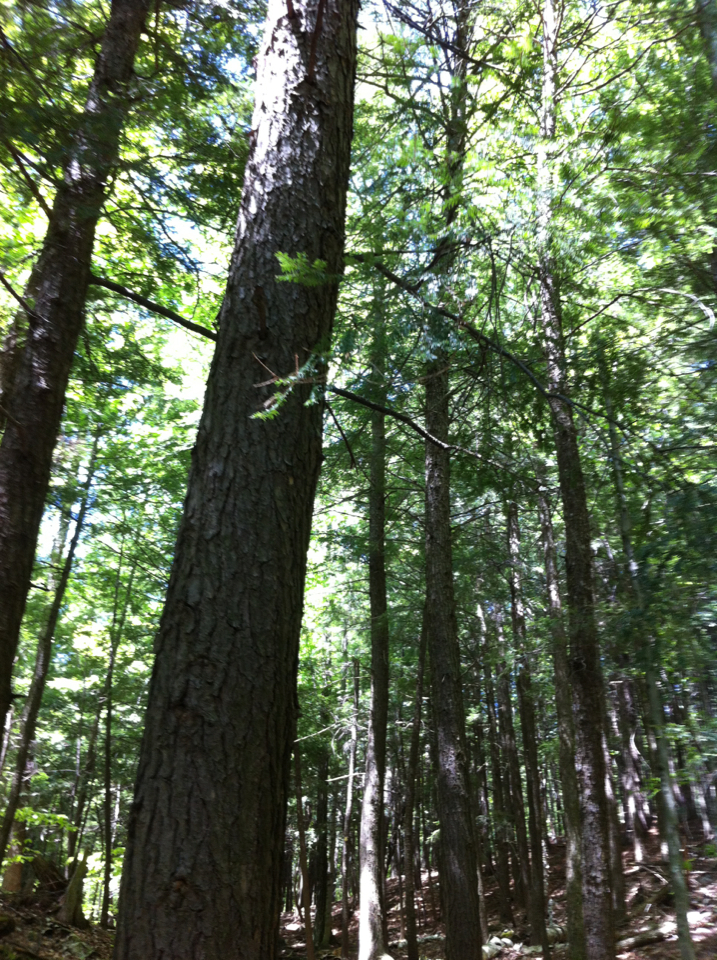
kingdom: Plantae
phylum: Tracheophyta
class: Pinopsida
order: Pinales
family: Pinaceae
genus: Tsuga
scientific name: Tsuga canadensis
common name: Eastern hemlock
